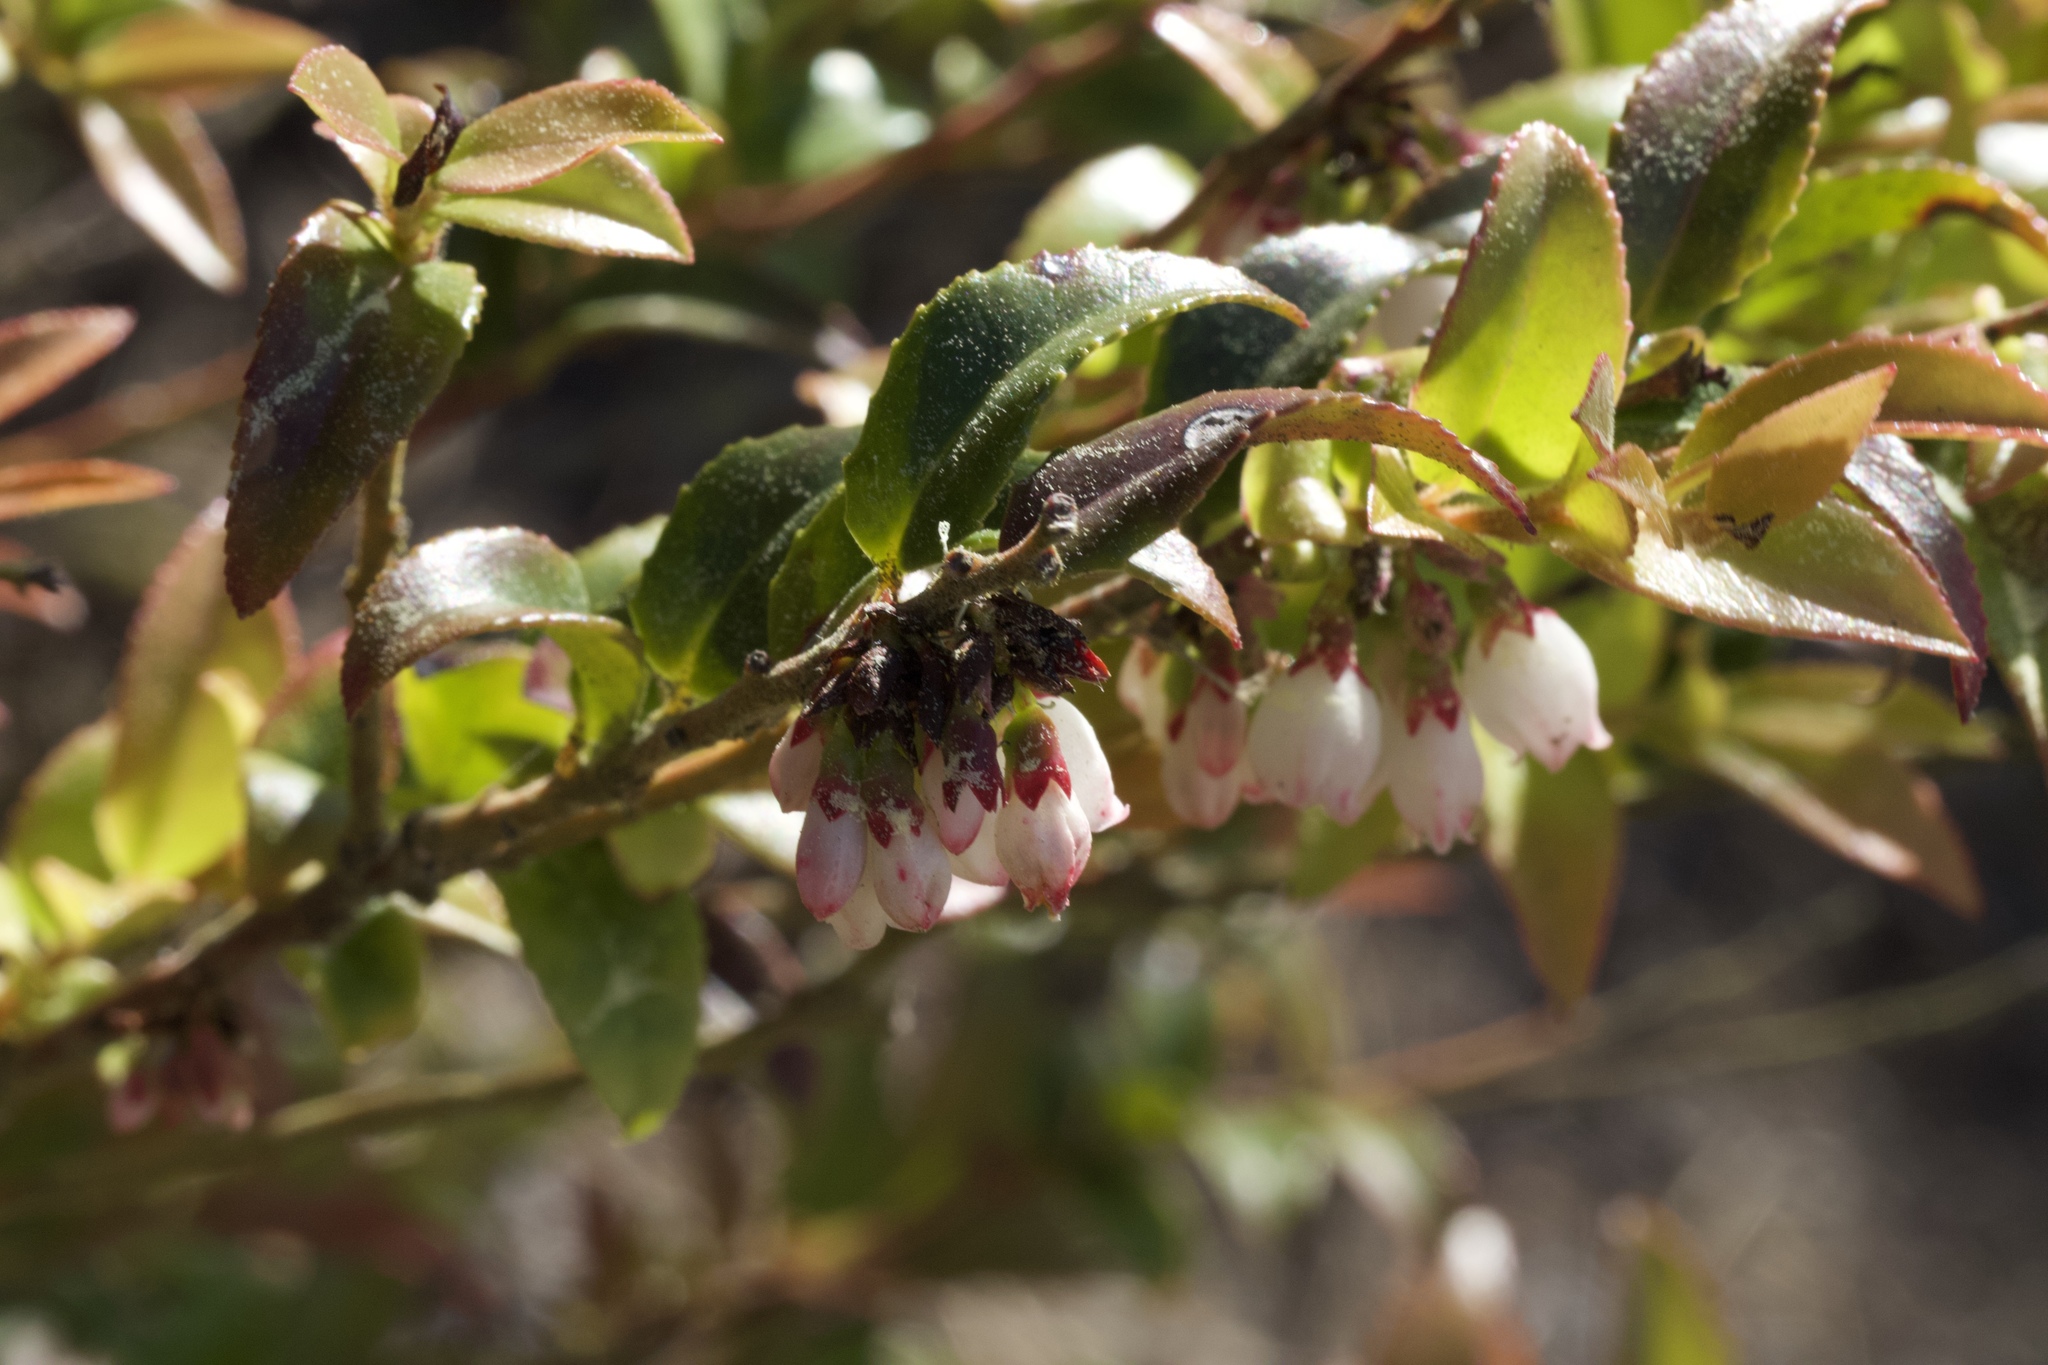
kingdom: Plantae
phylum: Tracheophyta
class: Magnoliopsida
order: Ericales
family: Ericaceae
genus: Vaccinium
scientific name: Vaccinium ovatum
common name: California-huckleberry
